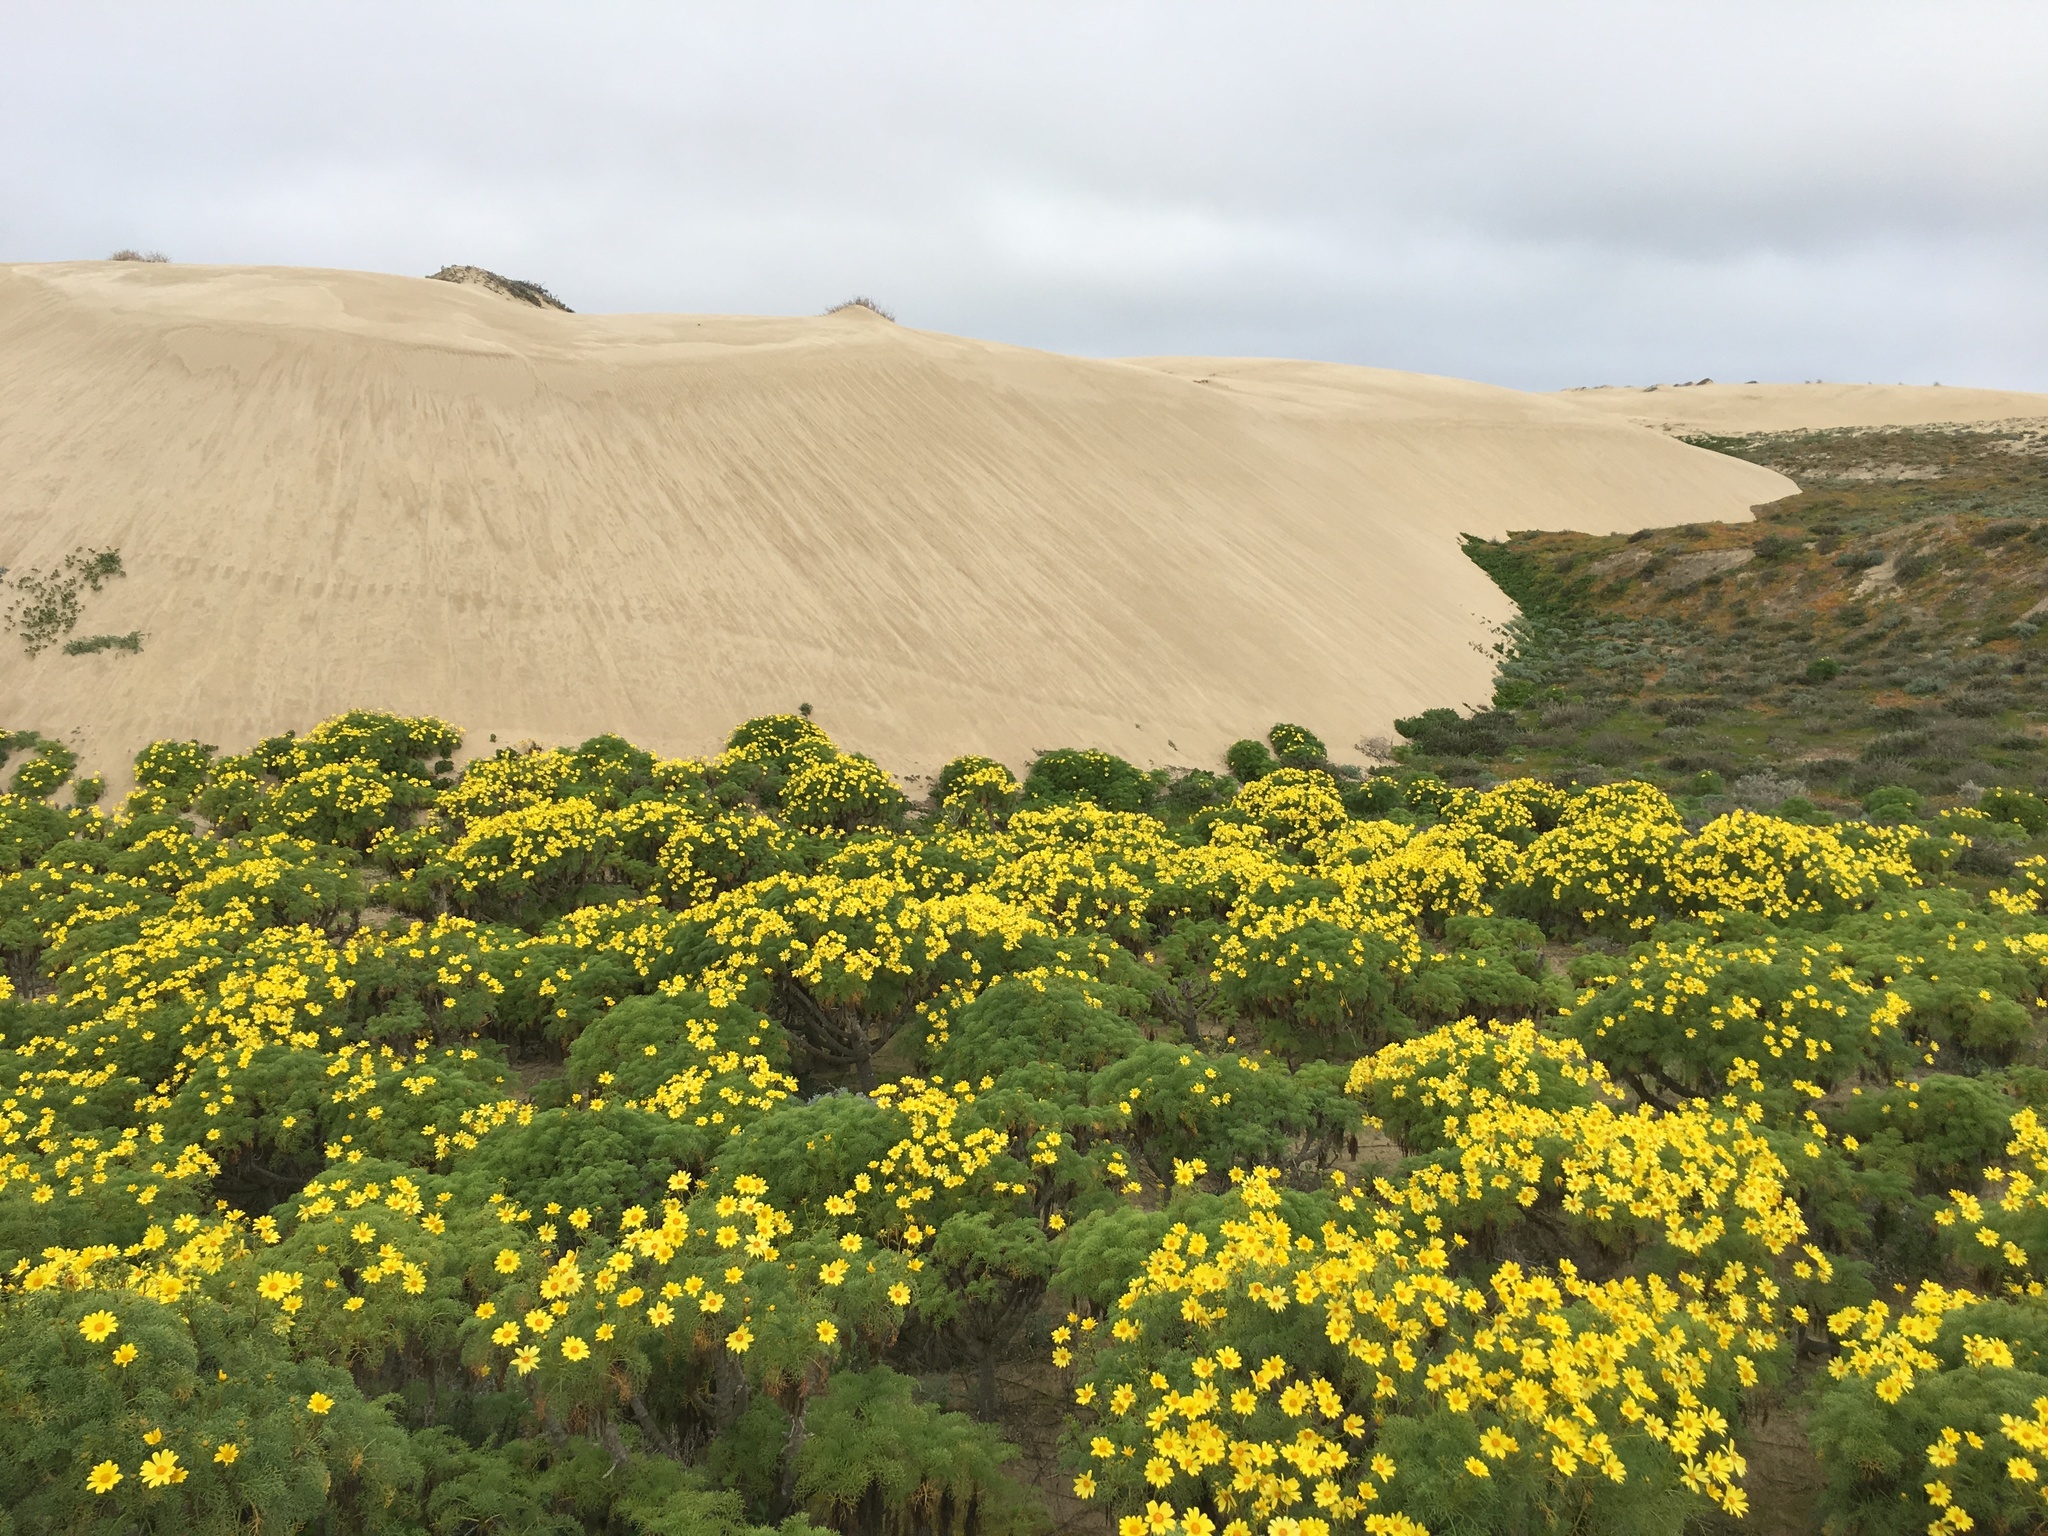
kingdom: Plantae
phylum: Tracheophyta
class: Magnoliopsida
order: Asterales
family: Asteraceae
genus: Coreopsis
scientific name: Coreopsis gigantea
